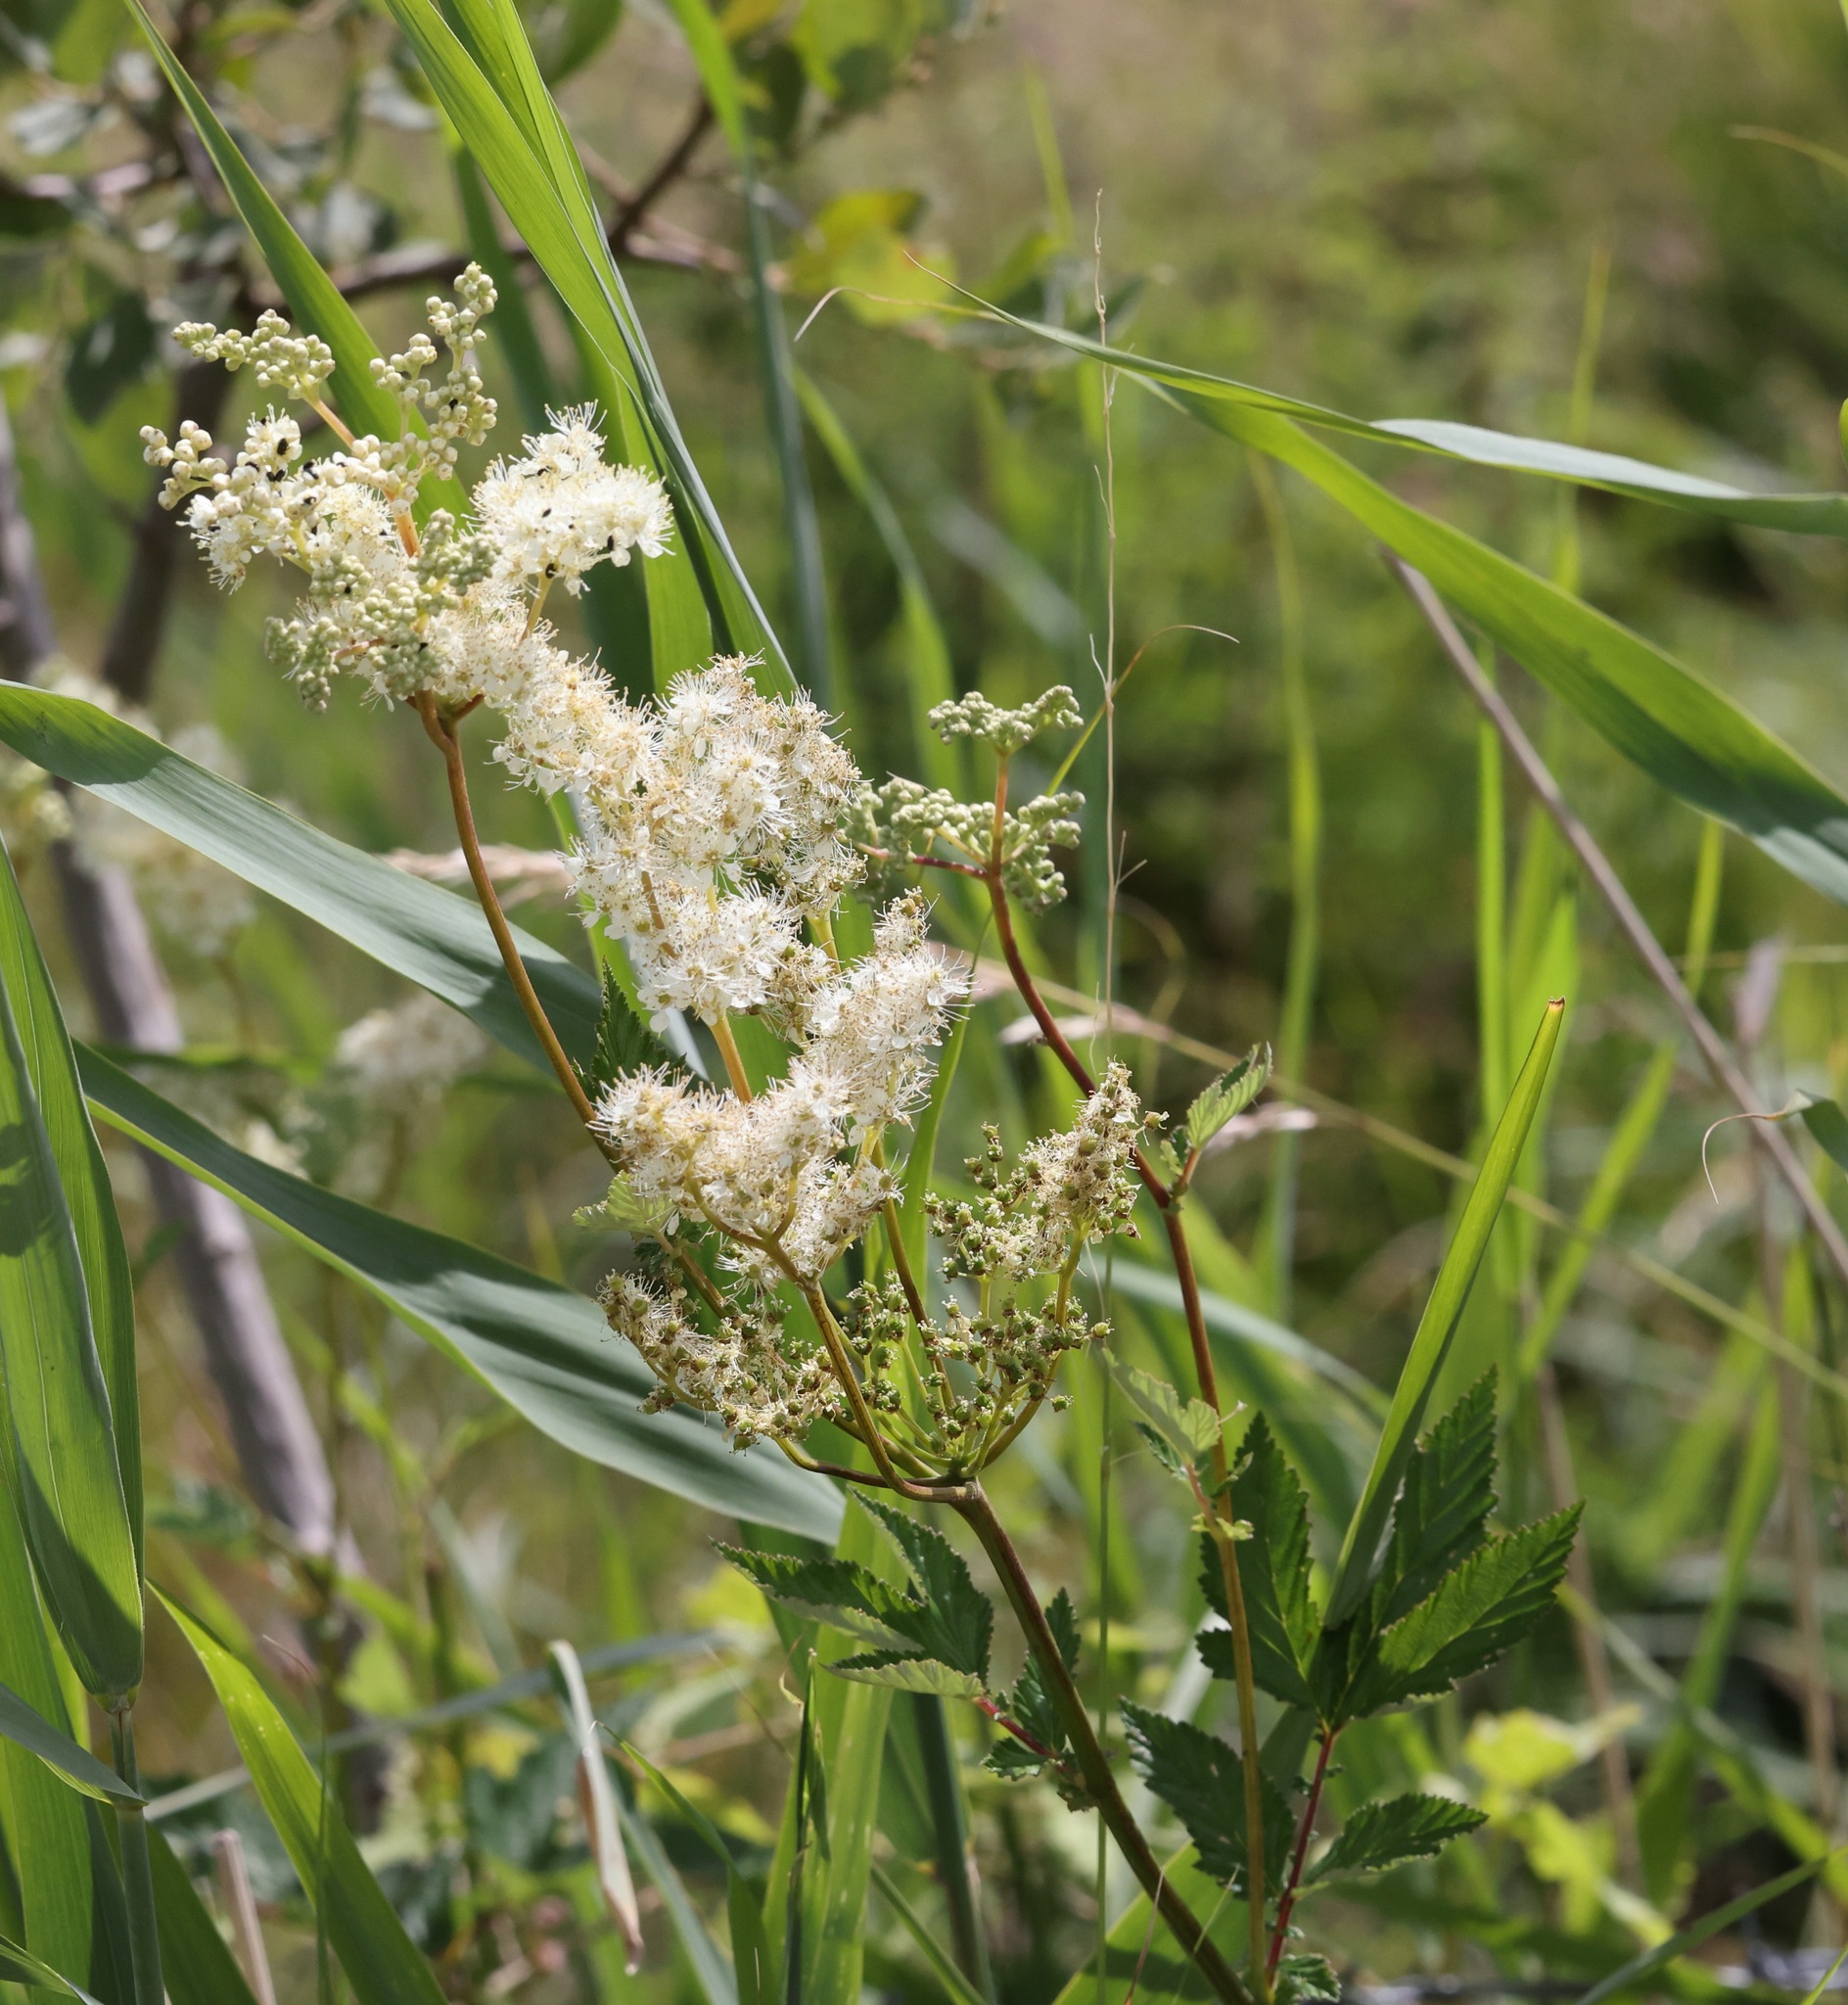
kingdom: Plantae
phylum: Tracheophyta
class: Magnoliopsida
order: Rosales
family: Rosaceae
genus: Filipendula
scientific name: Filipendula ulmaria
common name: Meadowsweet
